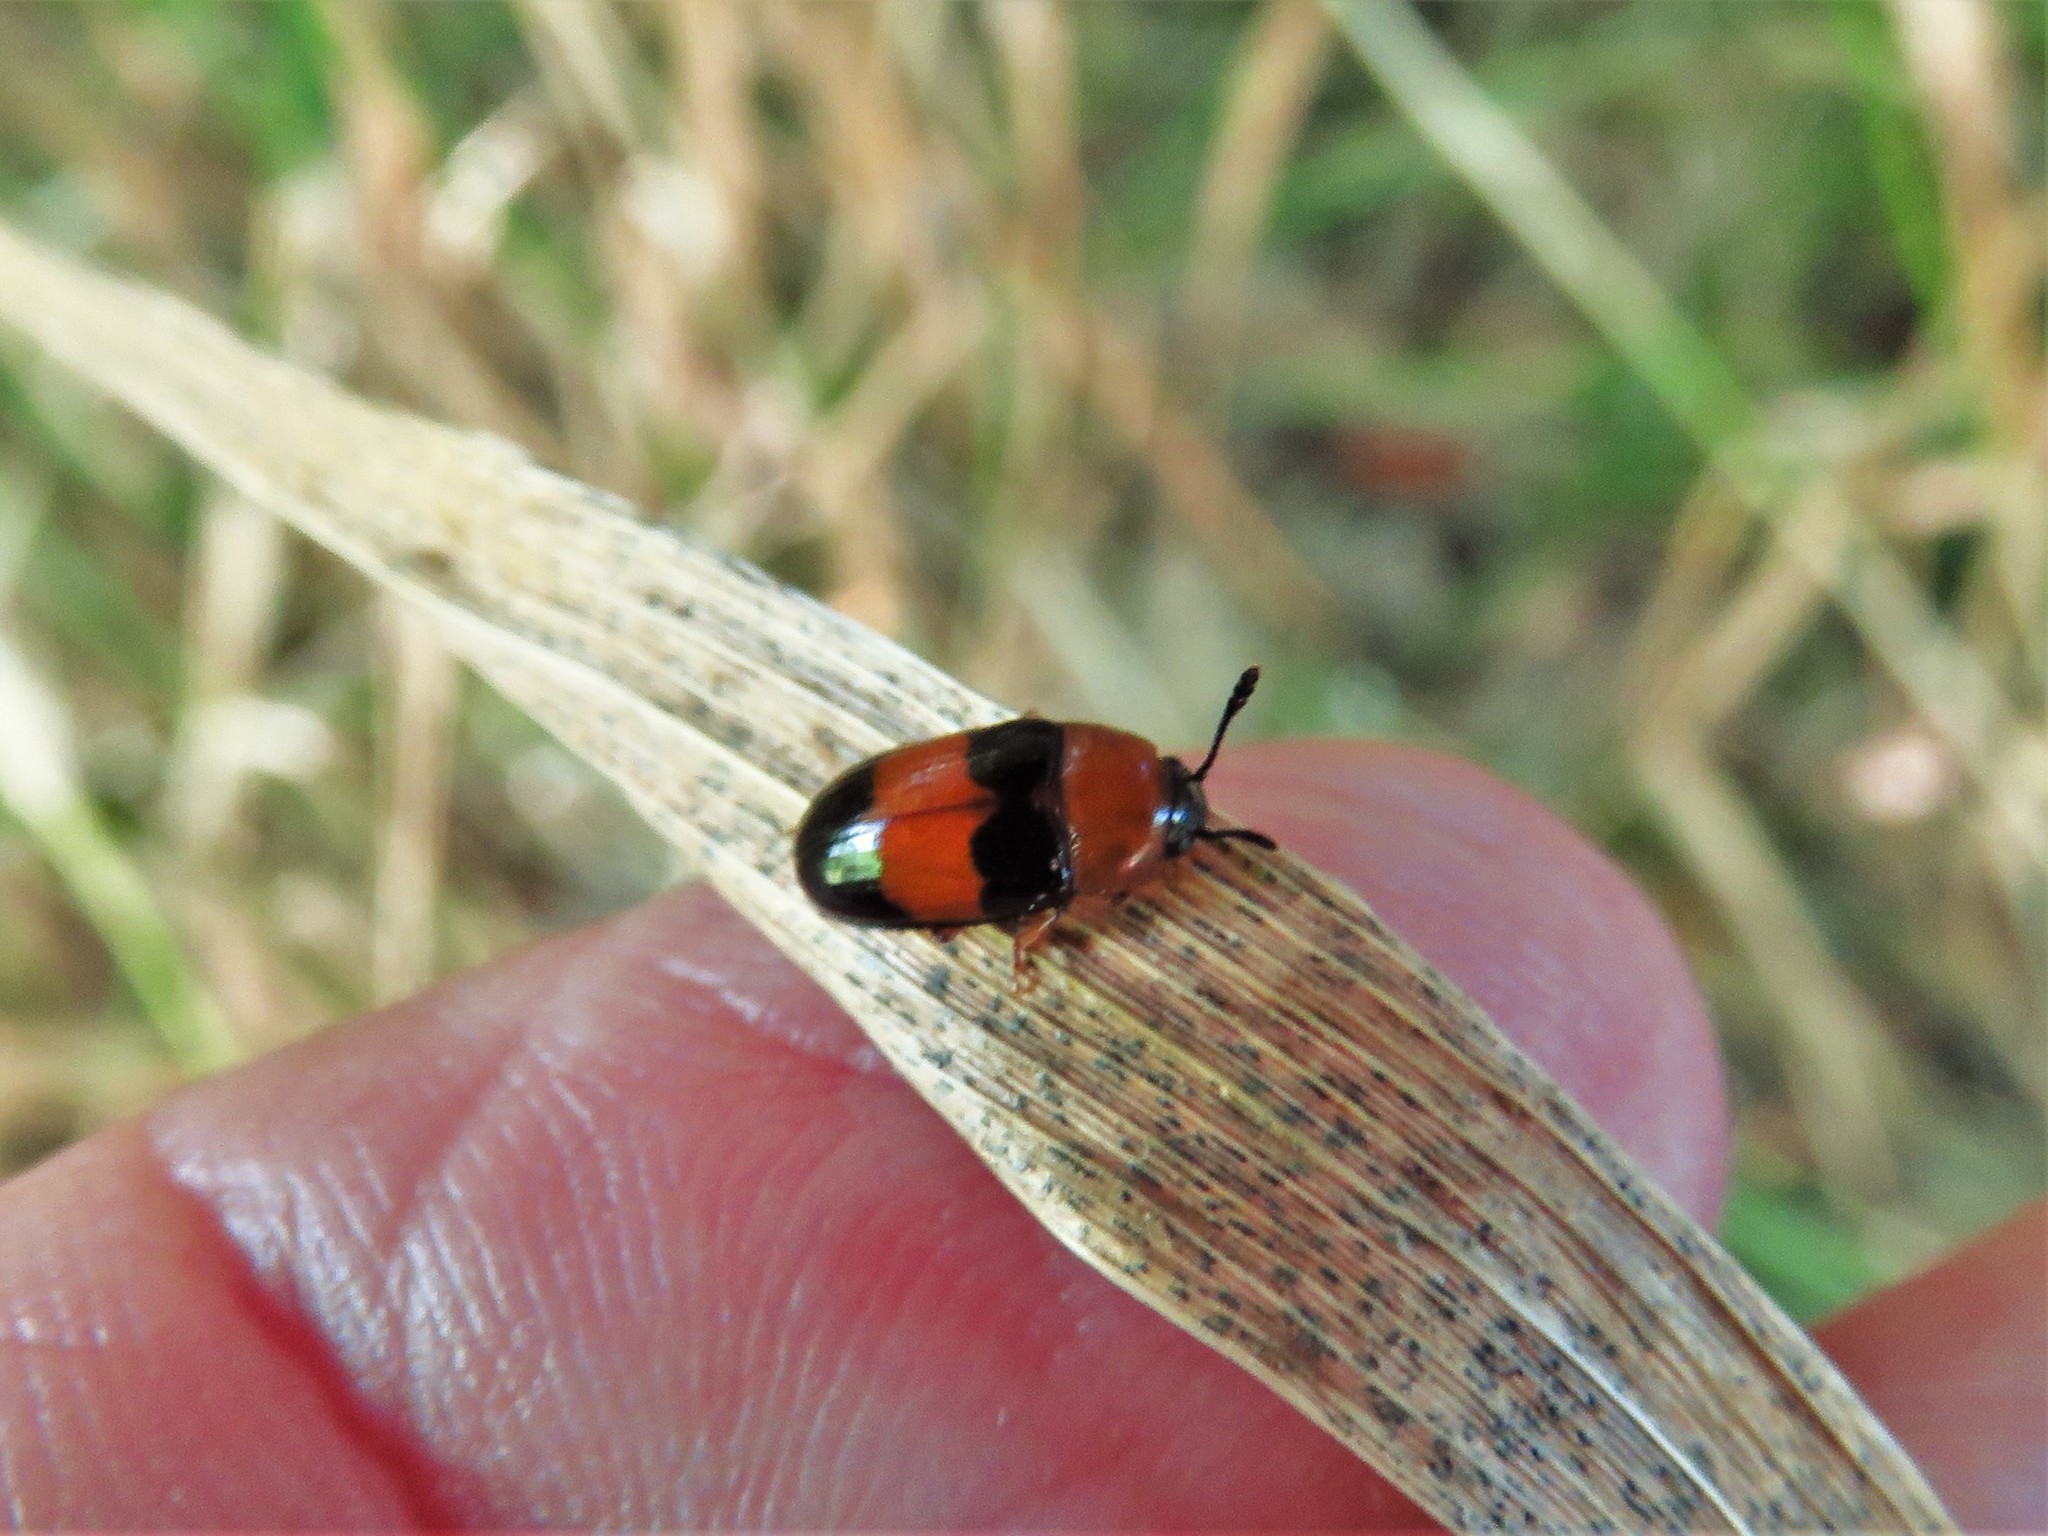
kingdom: Animalia
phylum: Arthropoda
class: Insecta
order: Coleoptera
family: Erotylidae
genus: Triplax
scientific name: Triplax festiva
